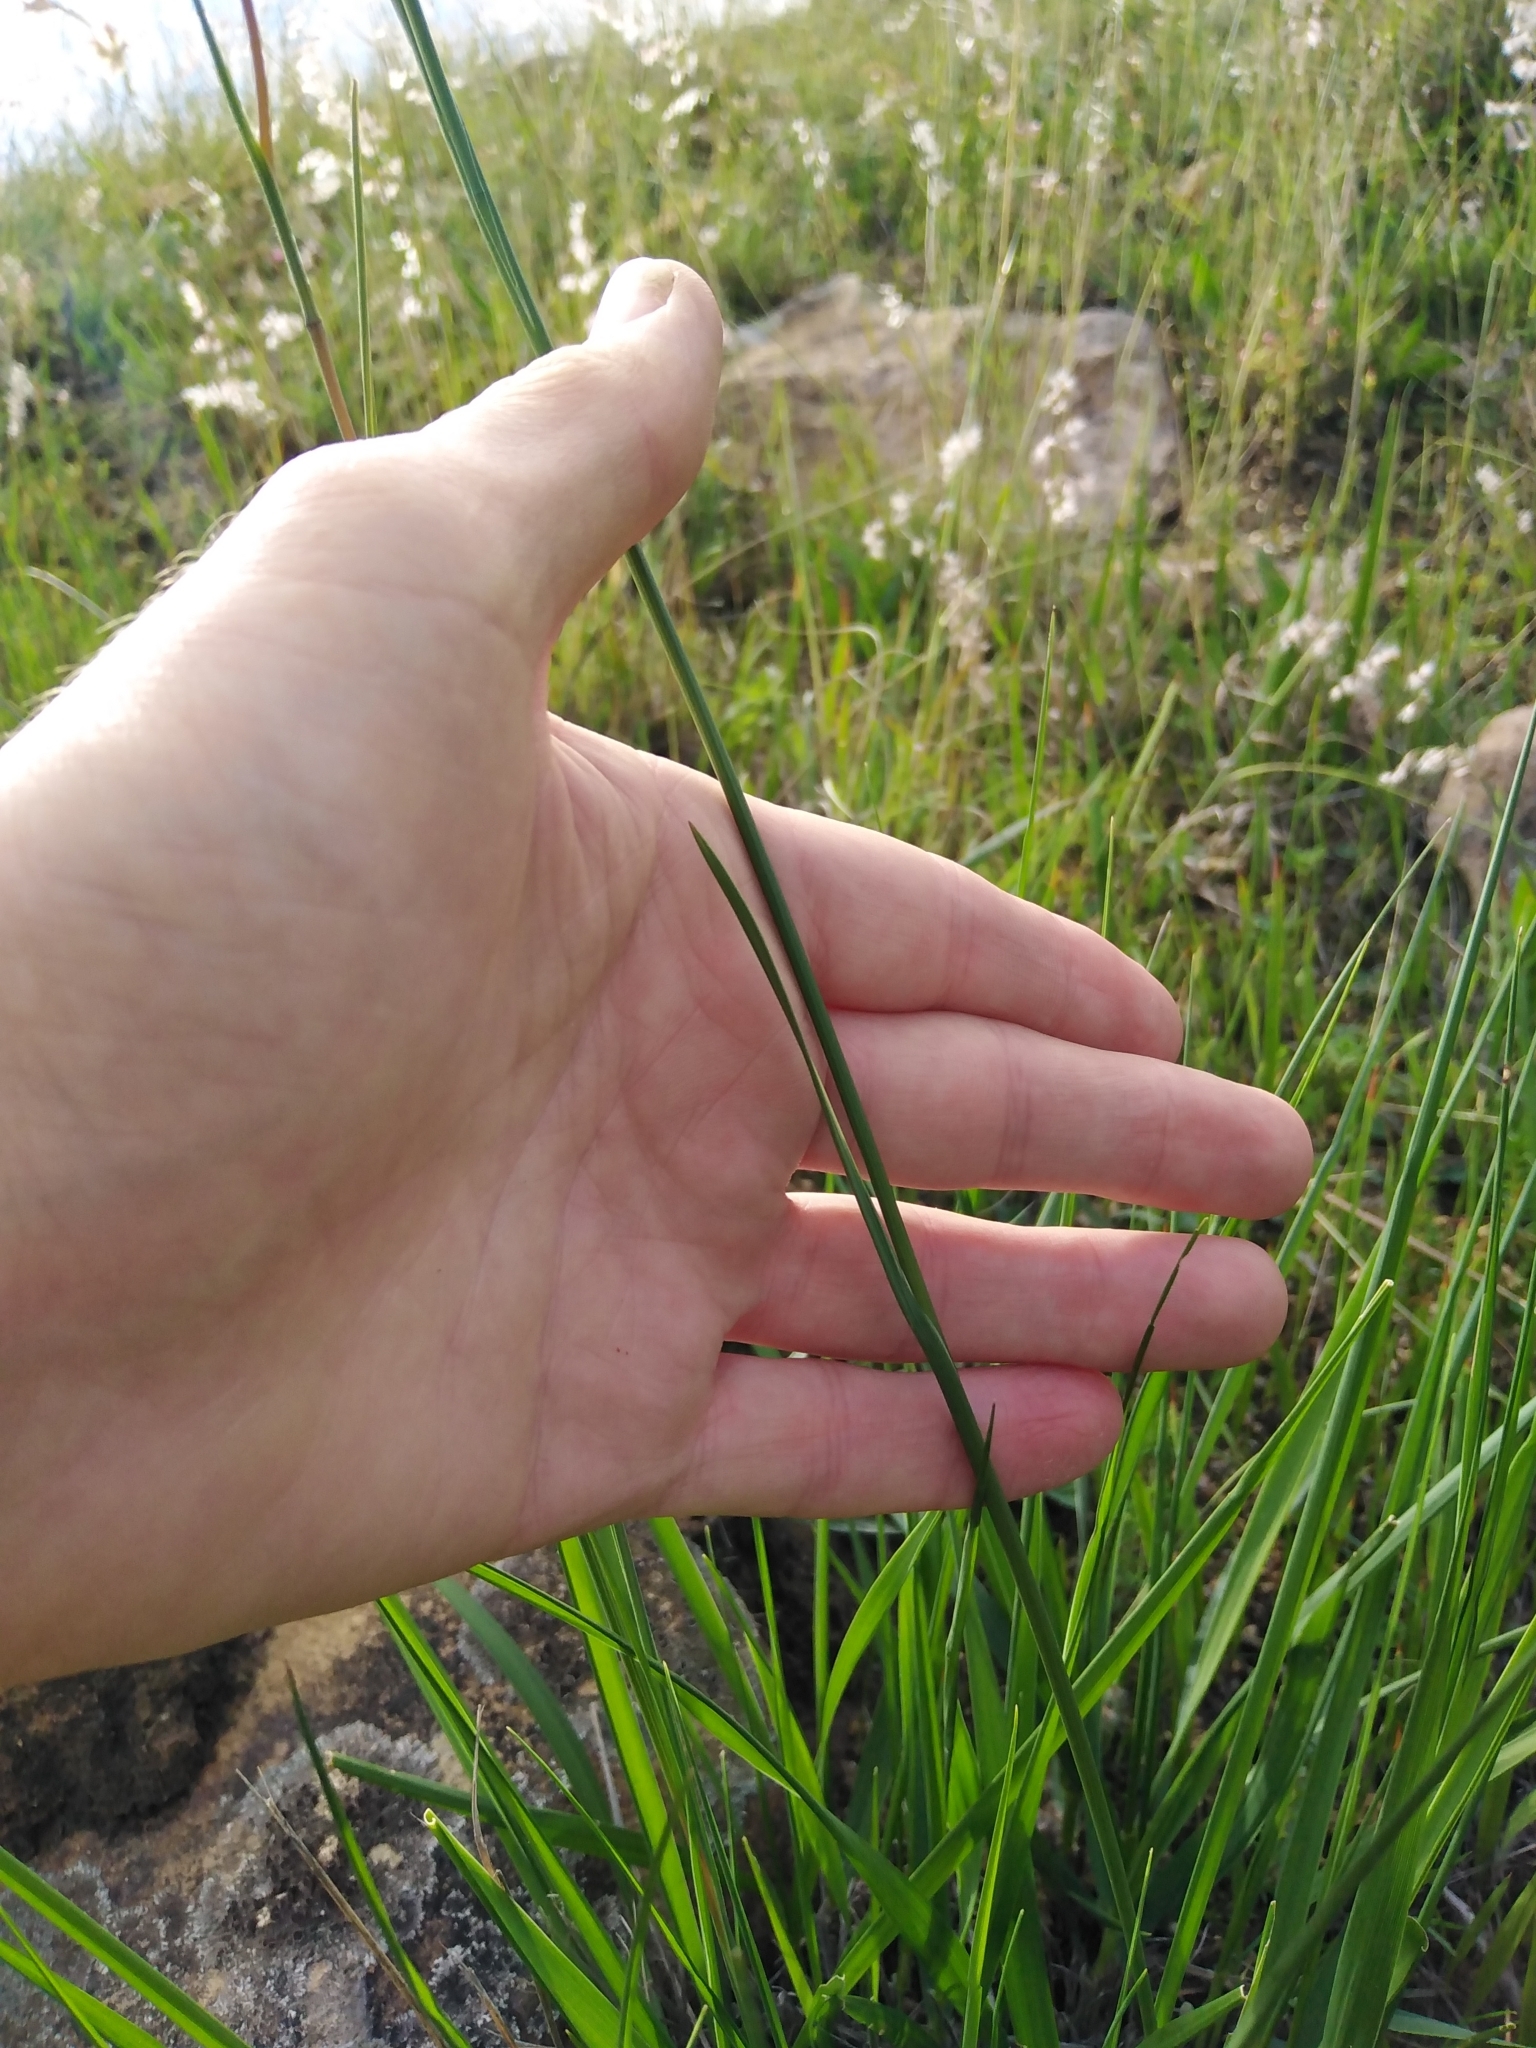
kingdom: Plantae
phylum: Tracheophyta
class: Liliopsida
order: Asparagales
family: Iridaceae
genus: Gladiolus
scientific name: Gladiolus liliaceus
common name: Large brown afrikaner
